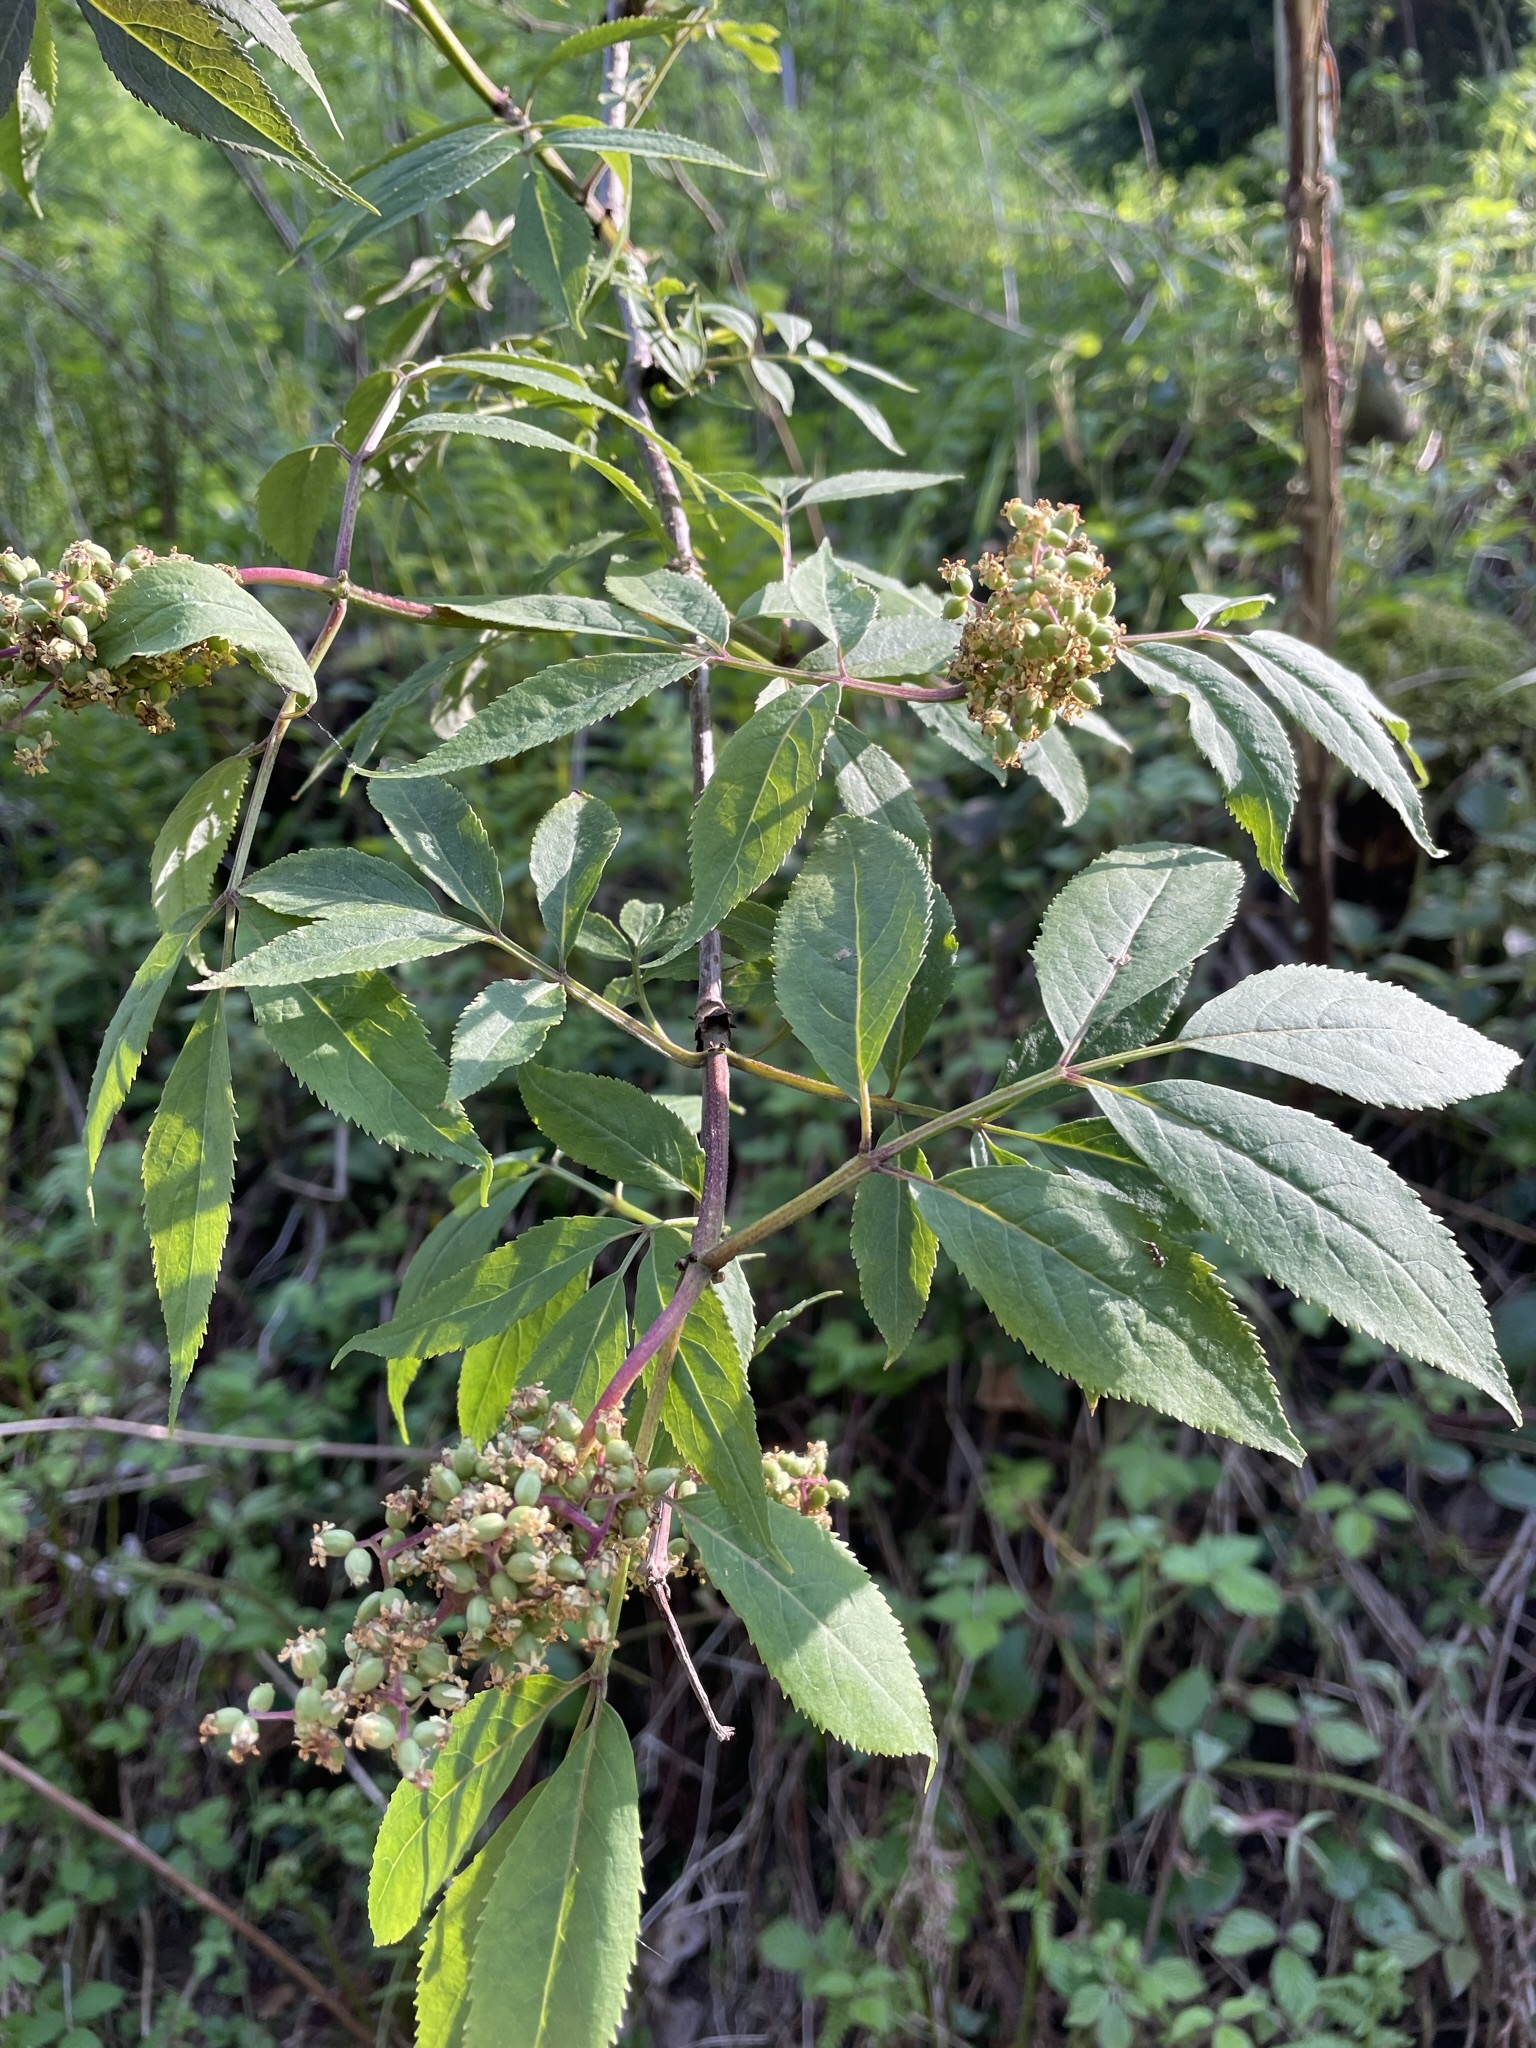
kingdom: Plantae
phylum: Tracheophyta
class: Magnoliopsida
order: Dipsacales
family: Viburnaceae
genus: Sambucus
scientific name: Sambucus racemosa
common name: Red-berried elder
